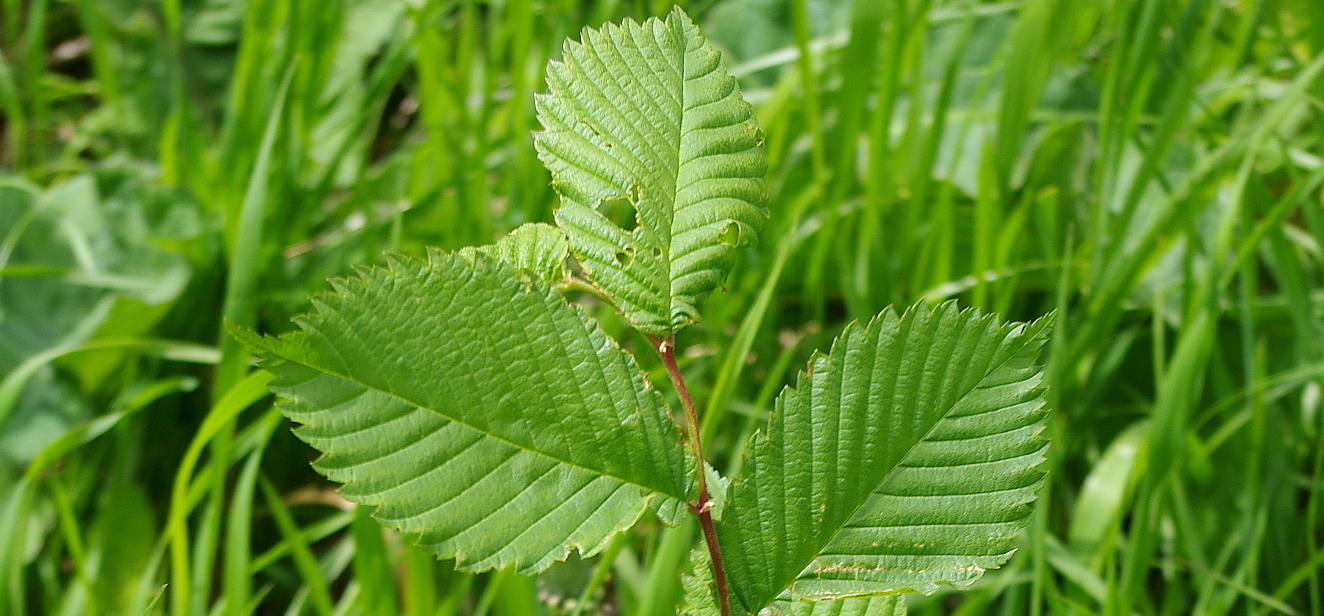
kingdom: Plantae
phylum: Tracheophyta
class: Magnoliopsida
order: Rosales
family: Ulmaceae
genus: Ulmus
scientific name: Ulmus laevis
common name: European white-elm
